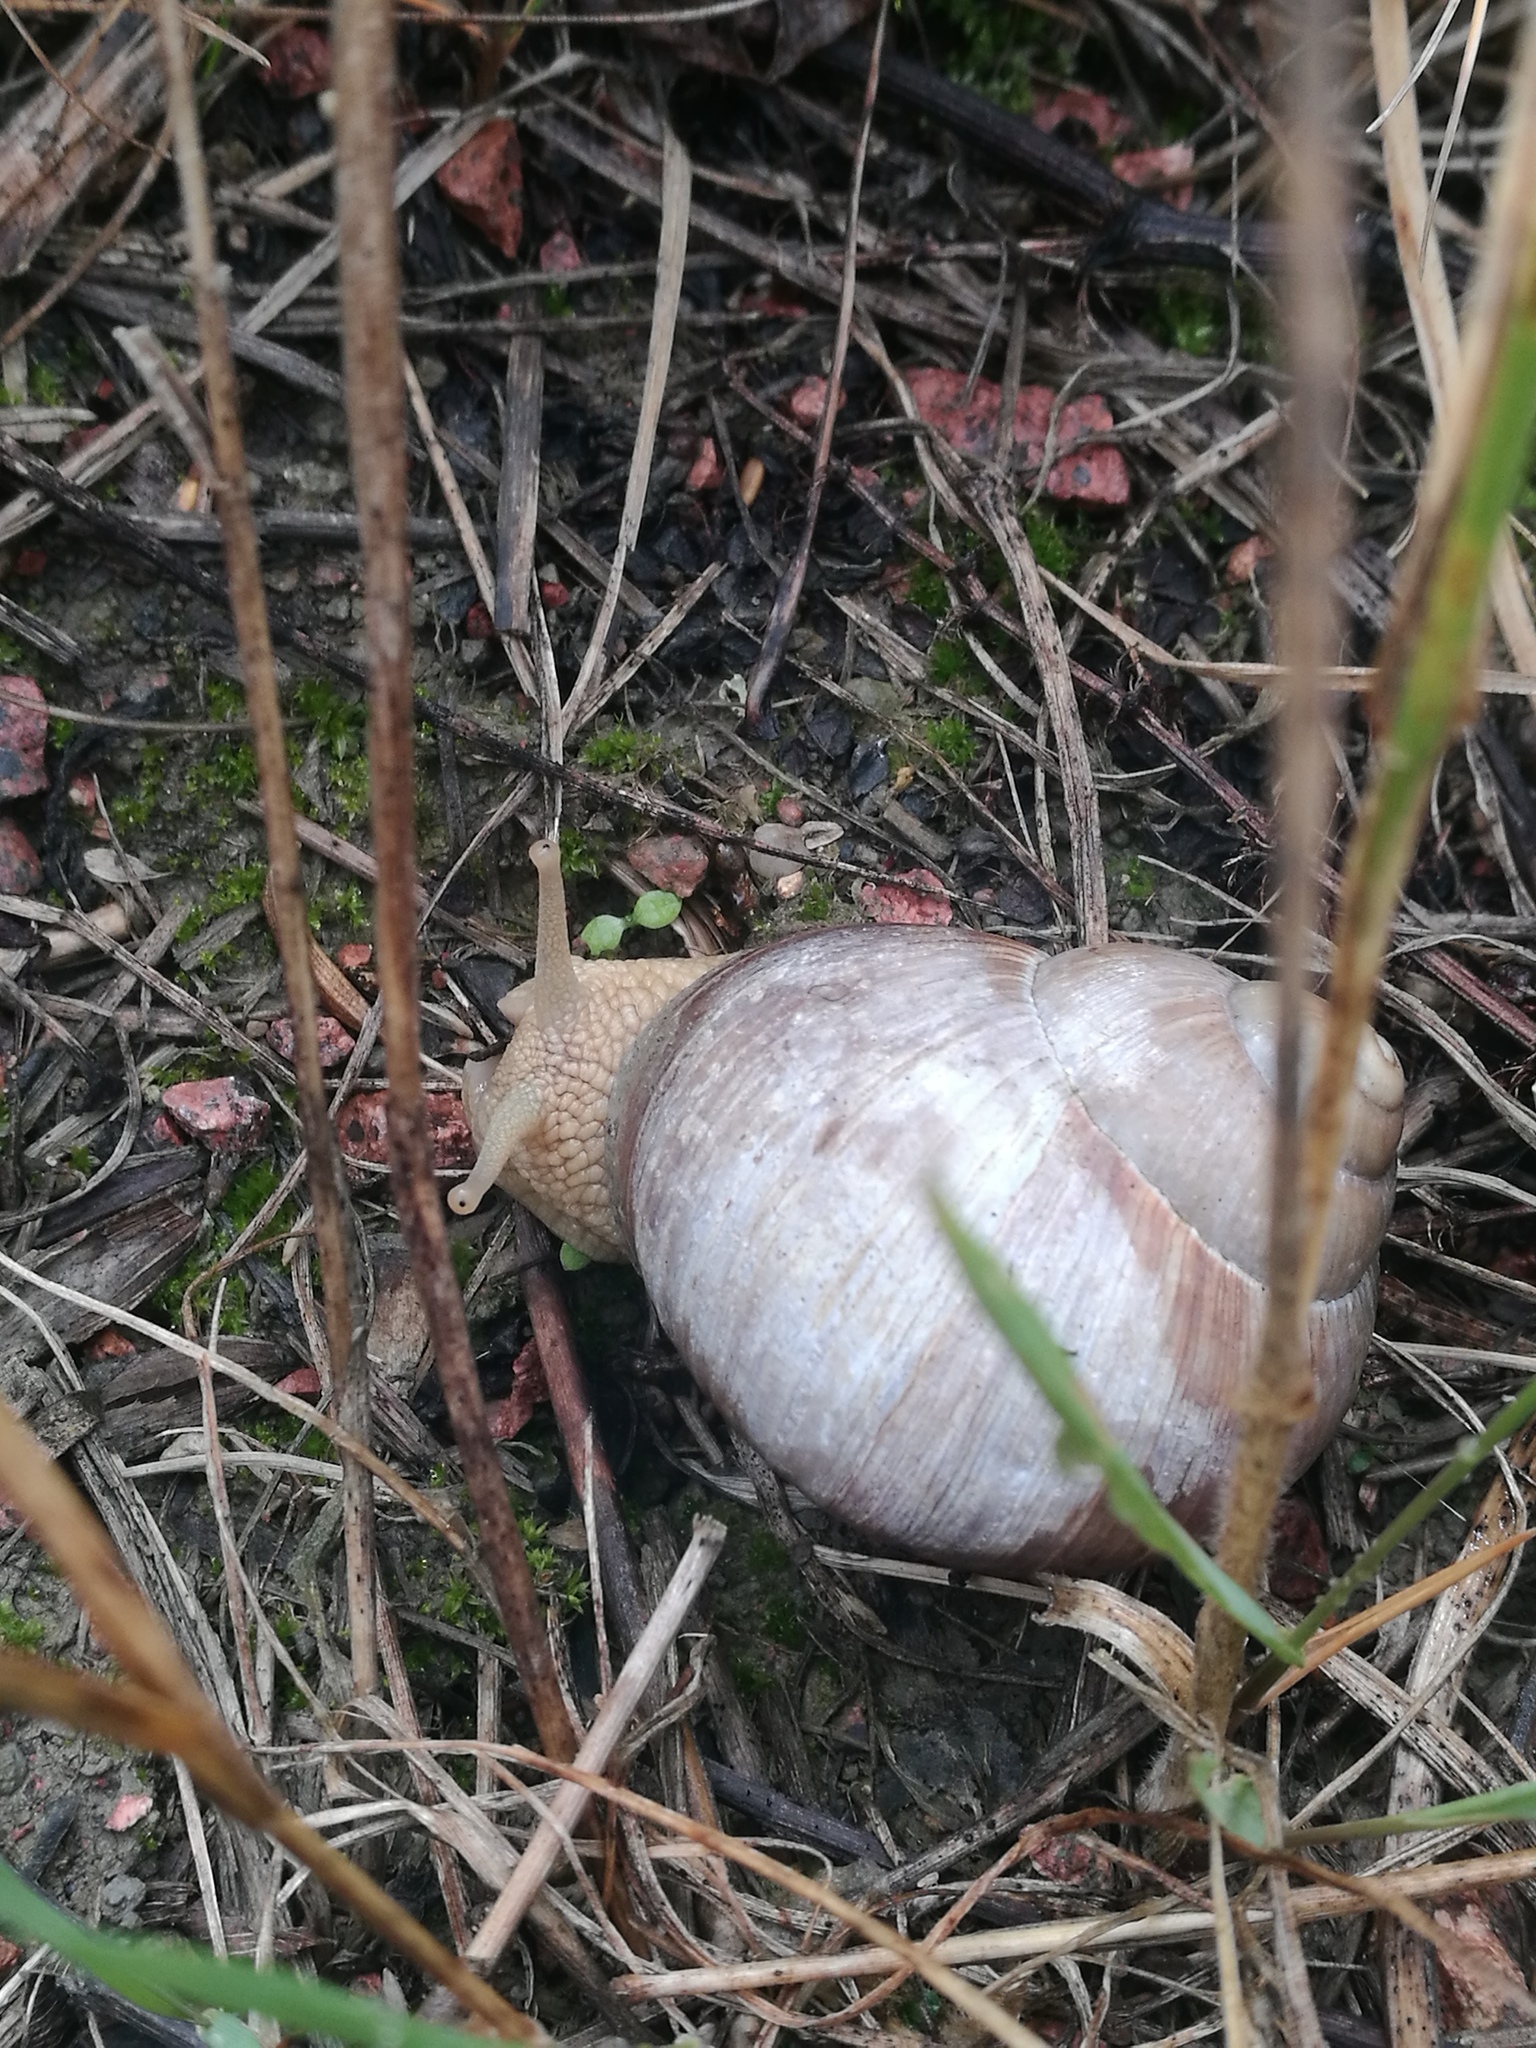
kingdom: Animalia
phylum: Mollusca
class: Gastropoda
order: Stylommatophora
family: Helicidae
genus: Helix
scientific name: Helix pomatia
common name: Roman snail
